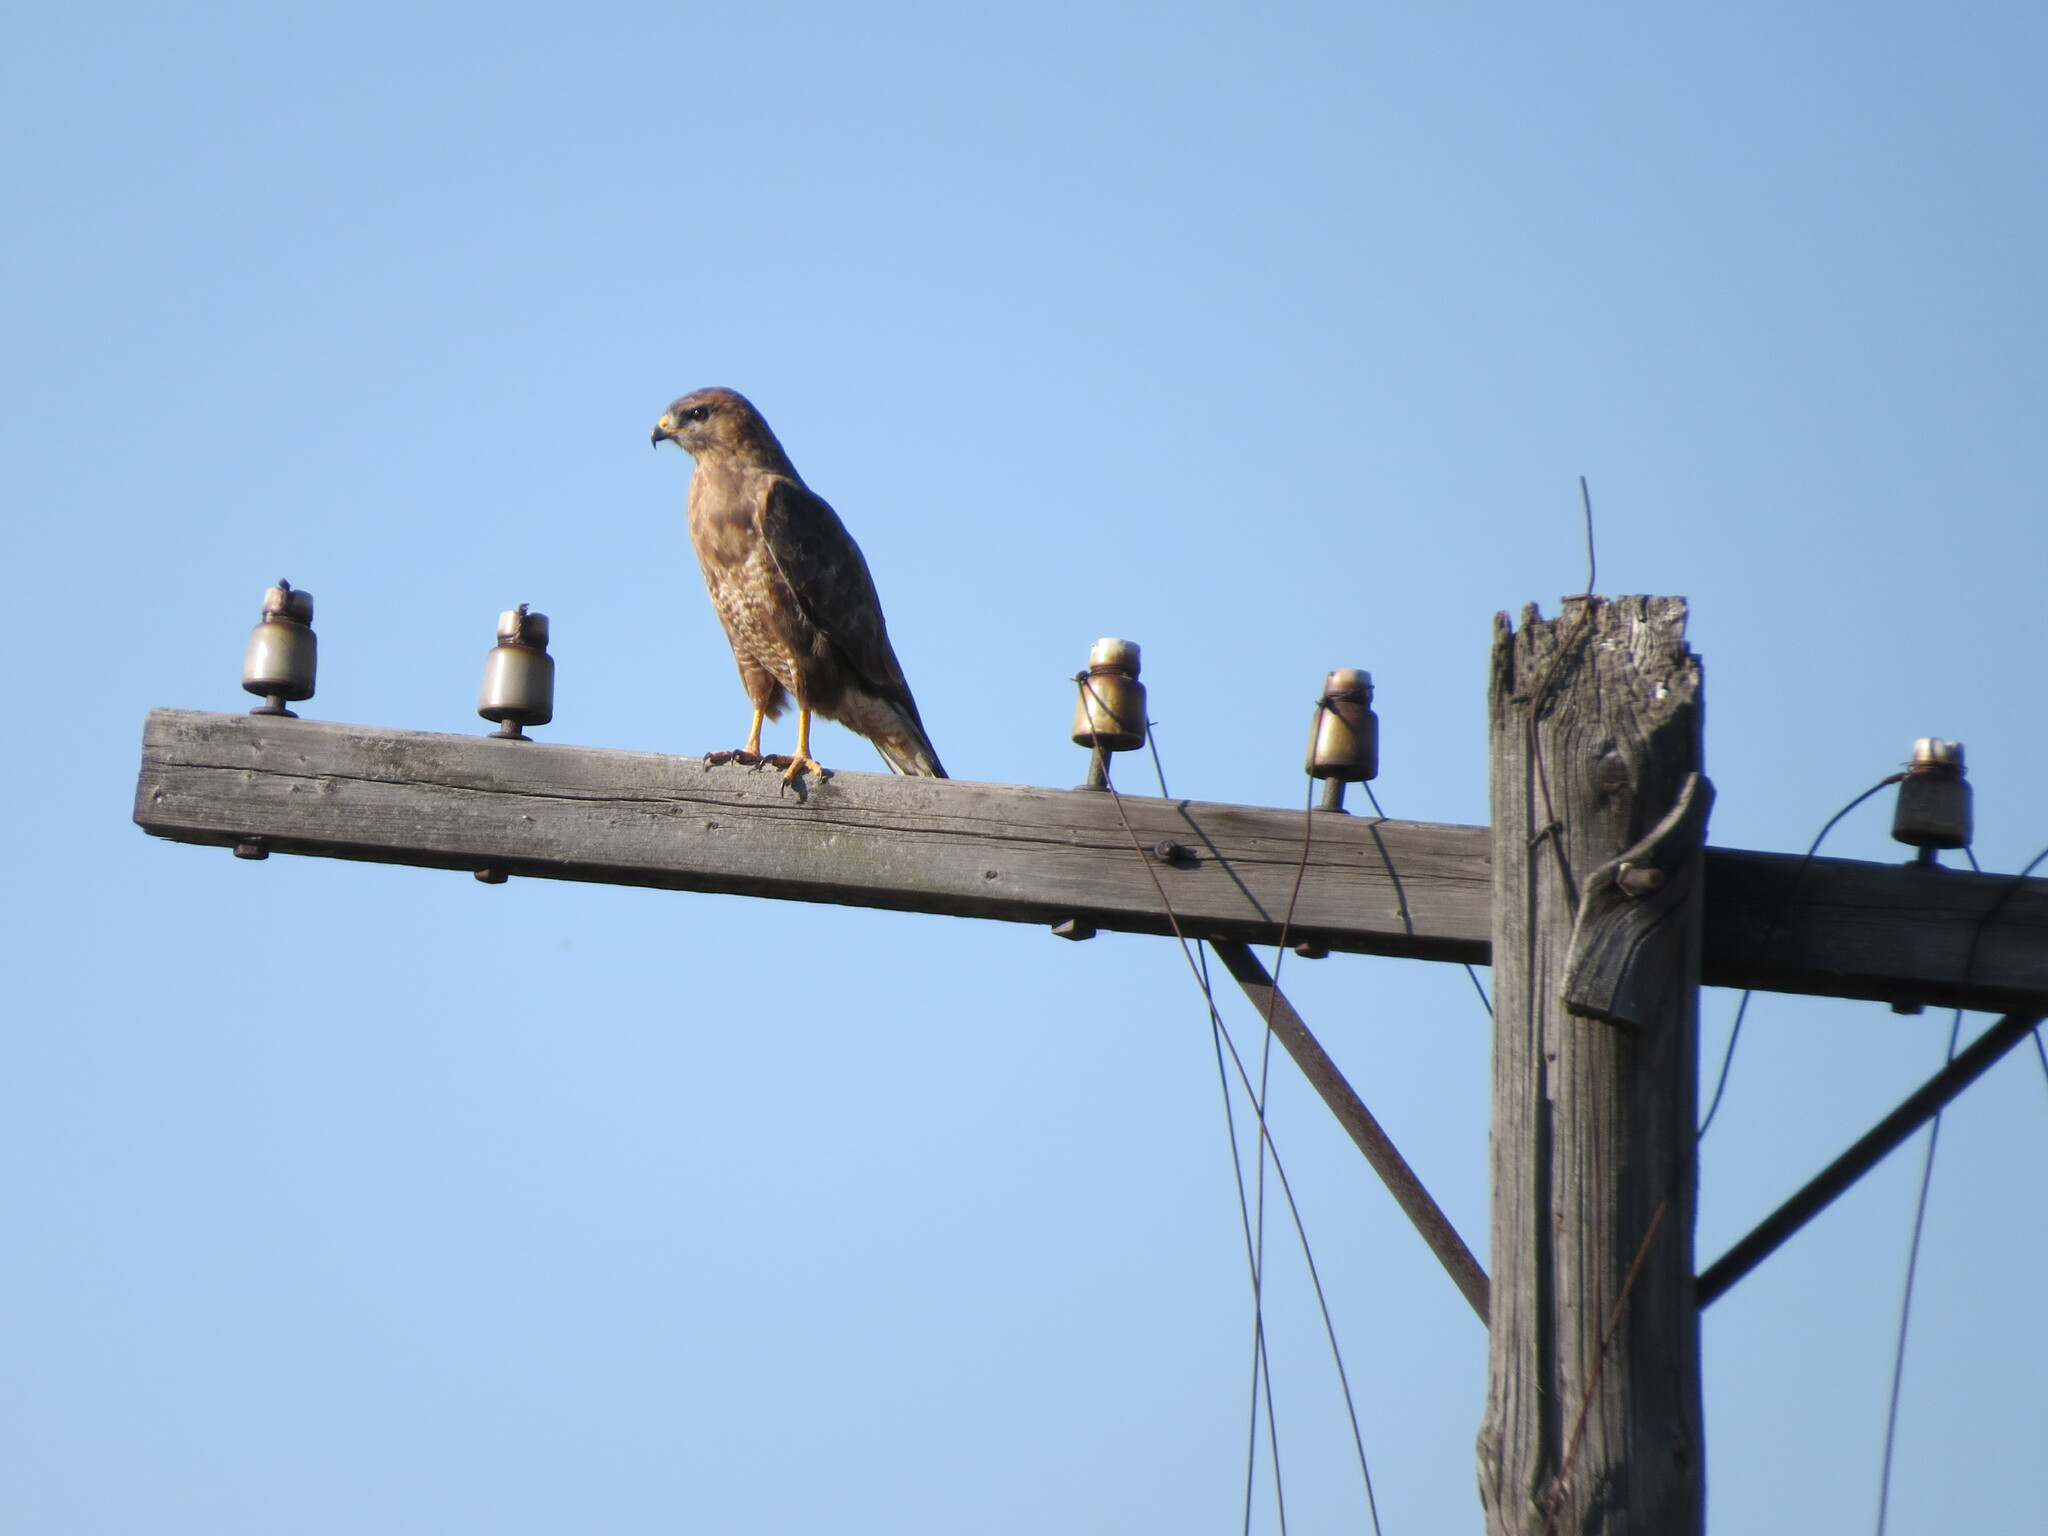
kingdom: Animalia
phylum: Chordata
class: Aves
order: Accipitriformes
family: Accipitridae
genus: Buteo
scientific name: Buteo buteo
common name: Common buzzard
